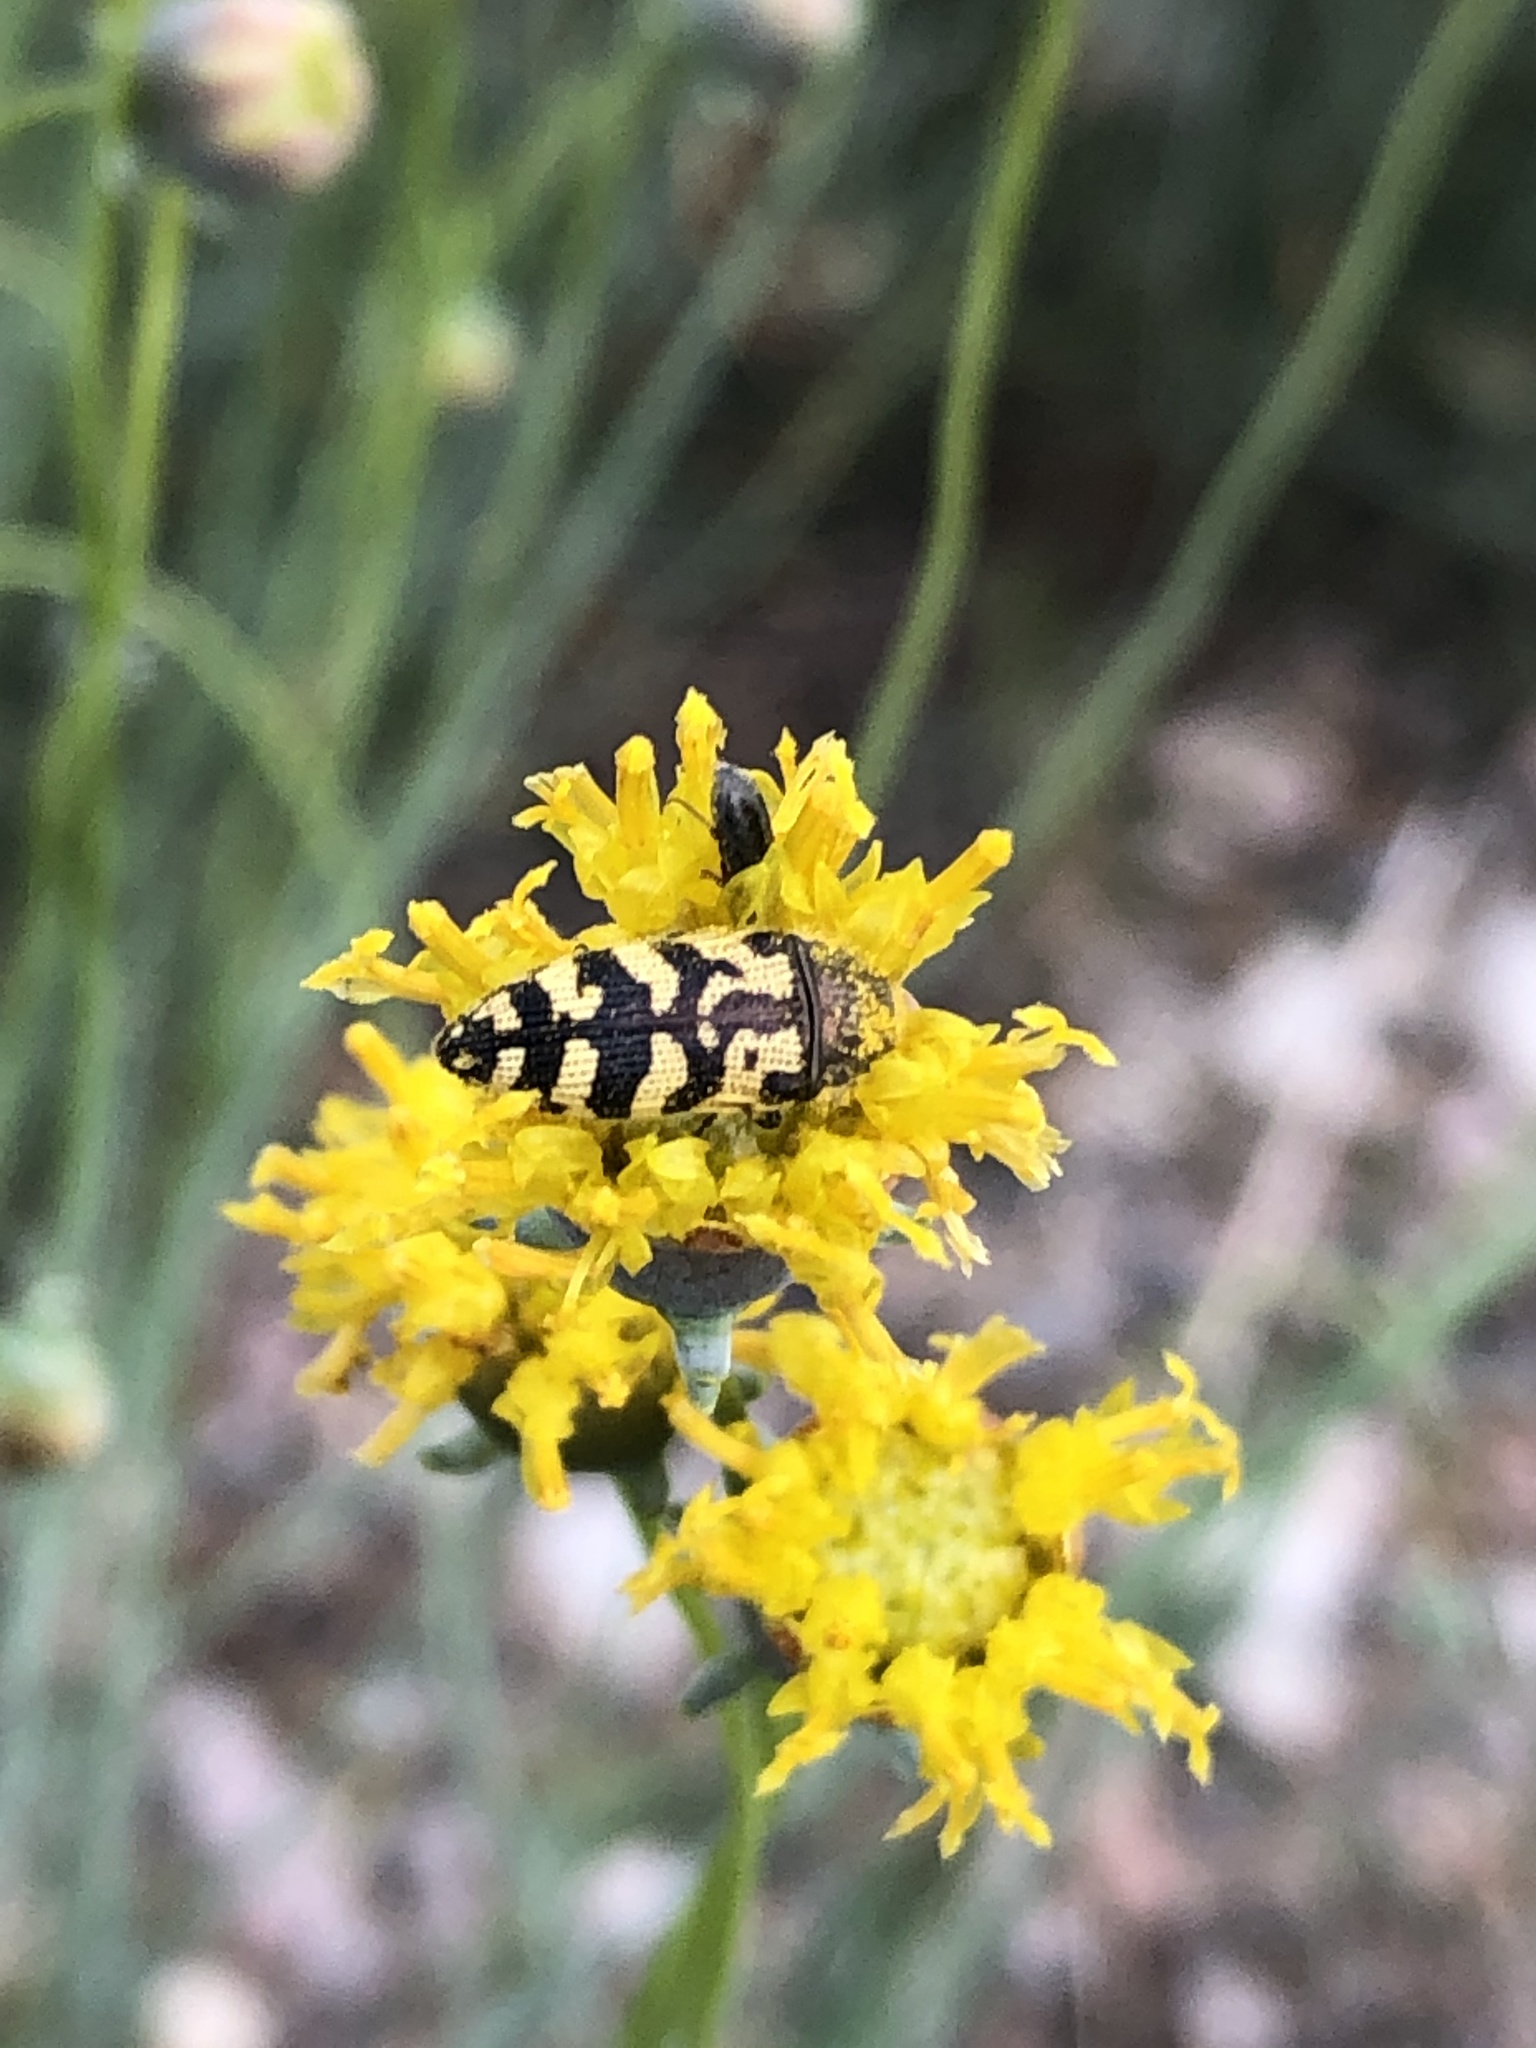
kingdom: Animalia
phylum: Arthropoda
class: Insecta
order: Coleoptera
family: Buprestidae
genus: Acmaeodera
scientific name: Acmaeodera mixta
